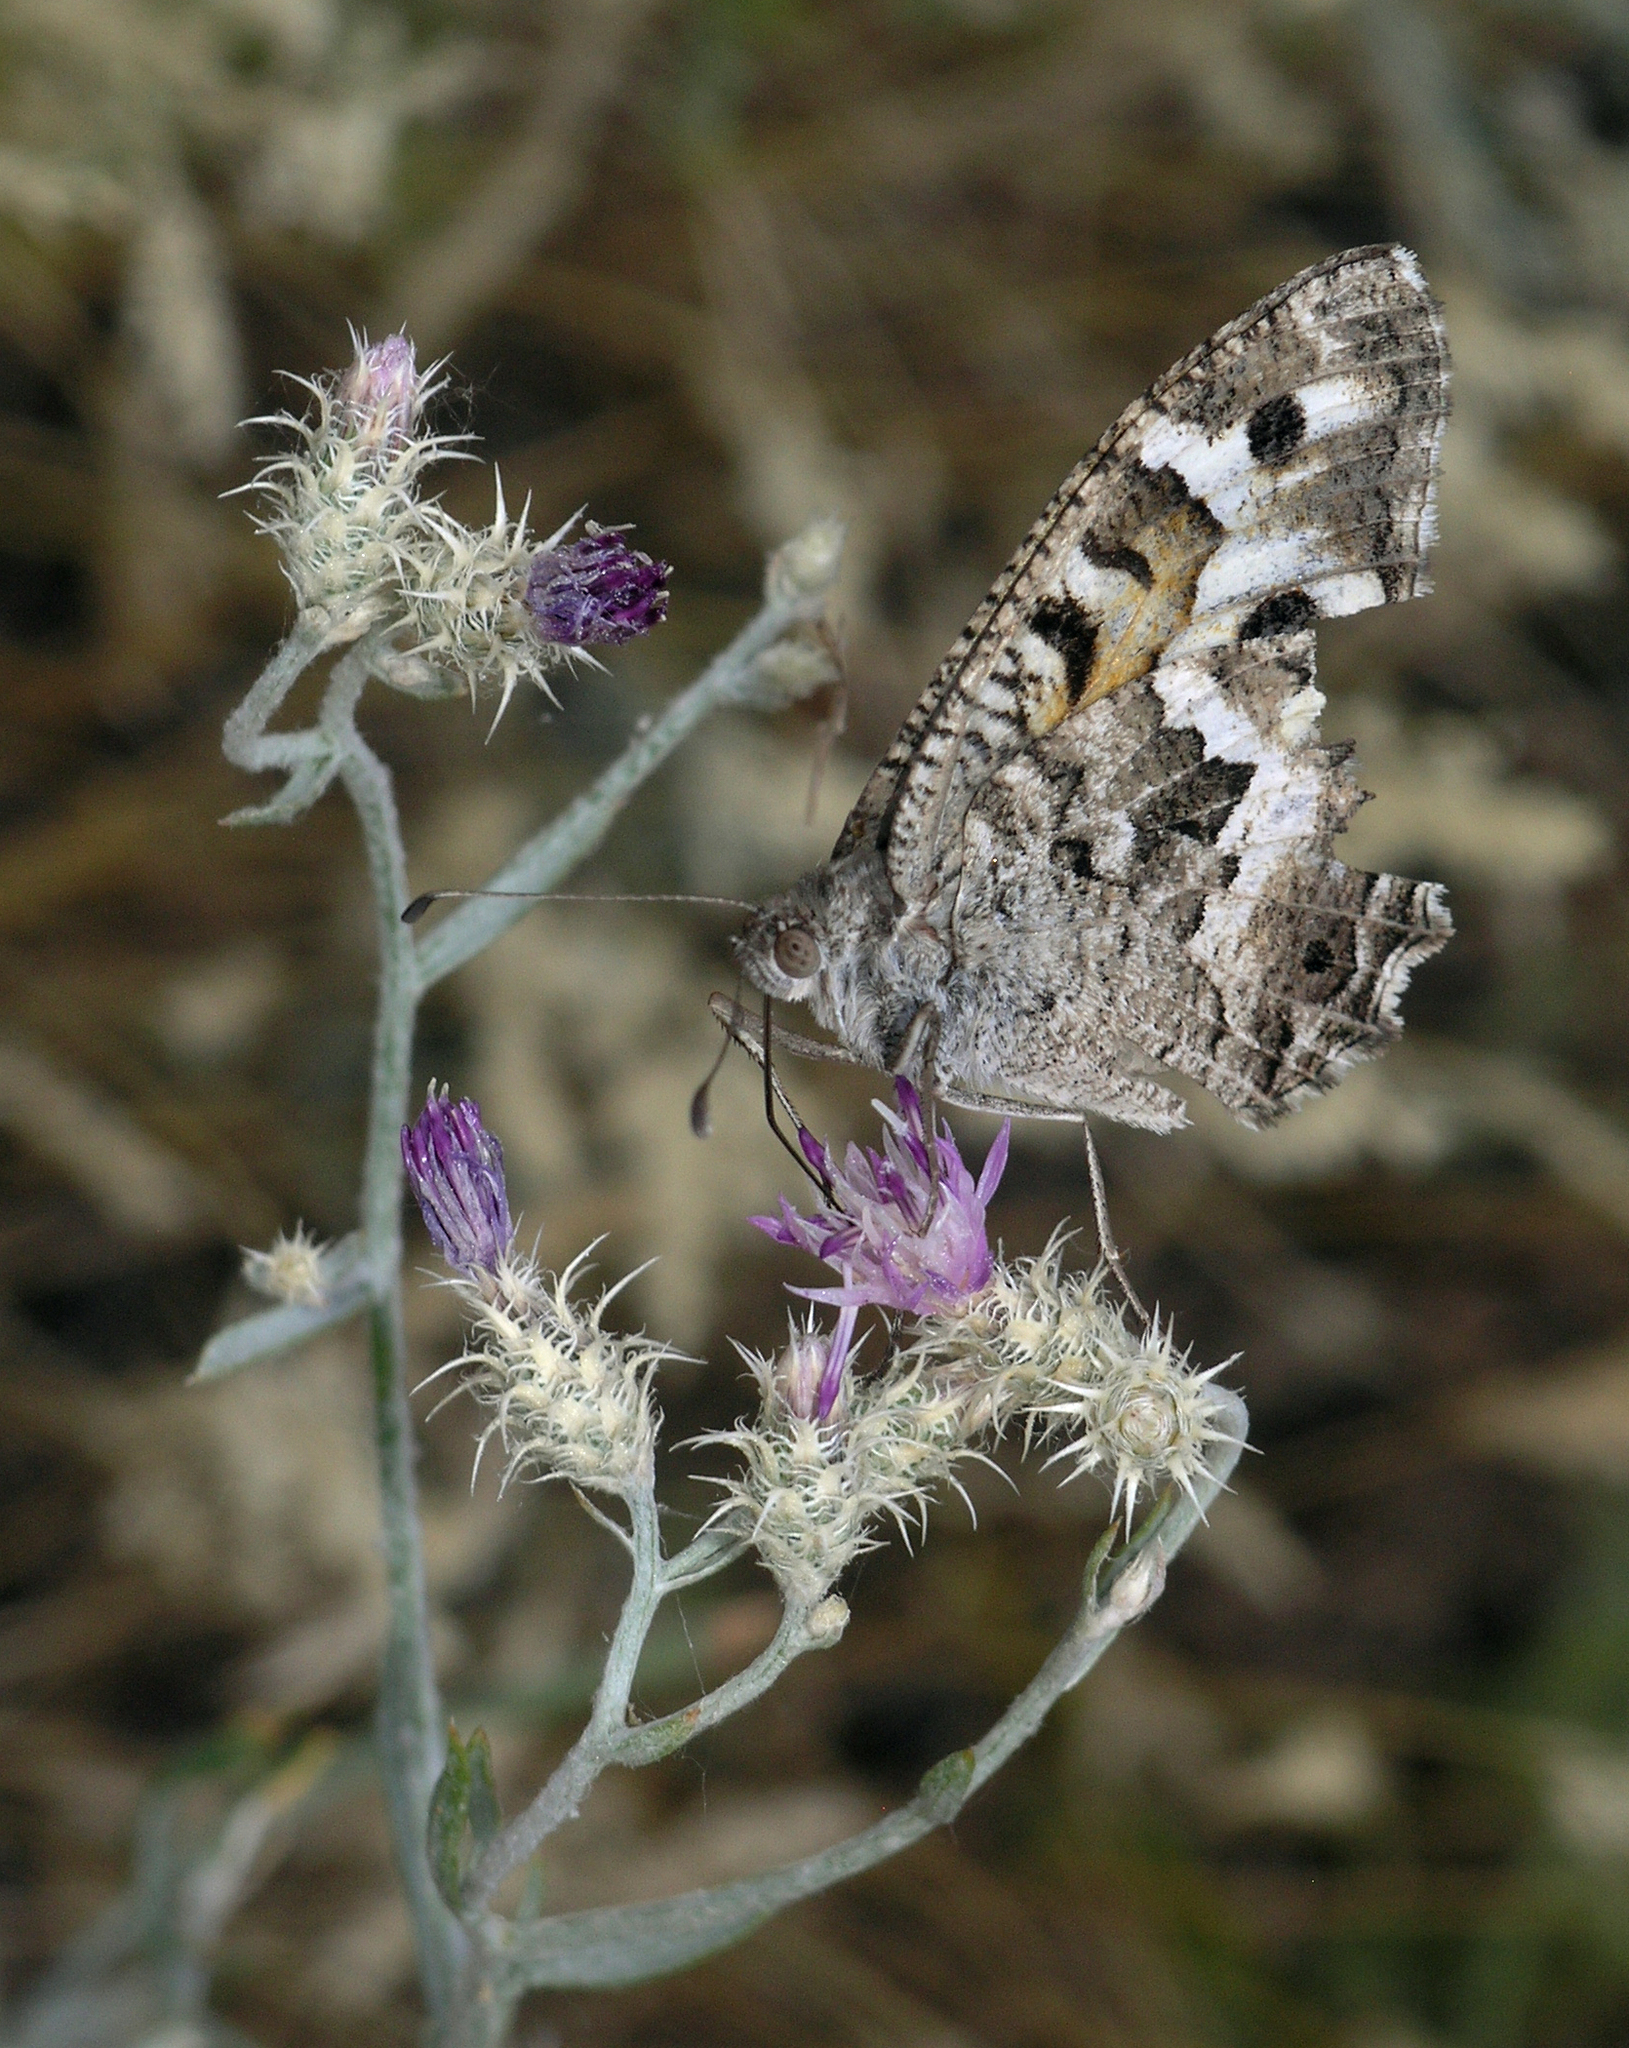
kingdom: Animalia
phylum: Arthropoda
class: Insecta
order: Lepidoptera
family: Nymphalidae
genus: Satyrus
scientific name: Satyrus Chazara enervata
